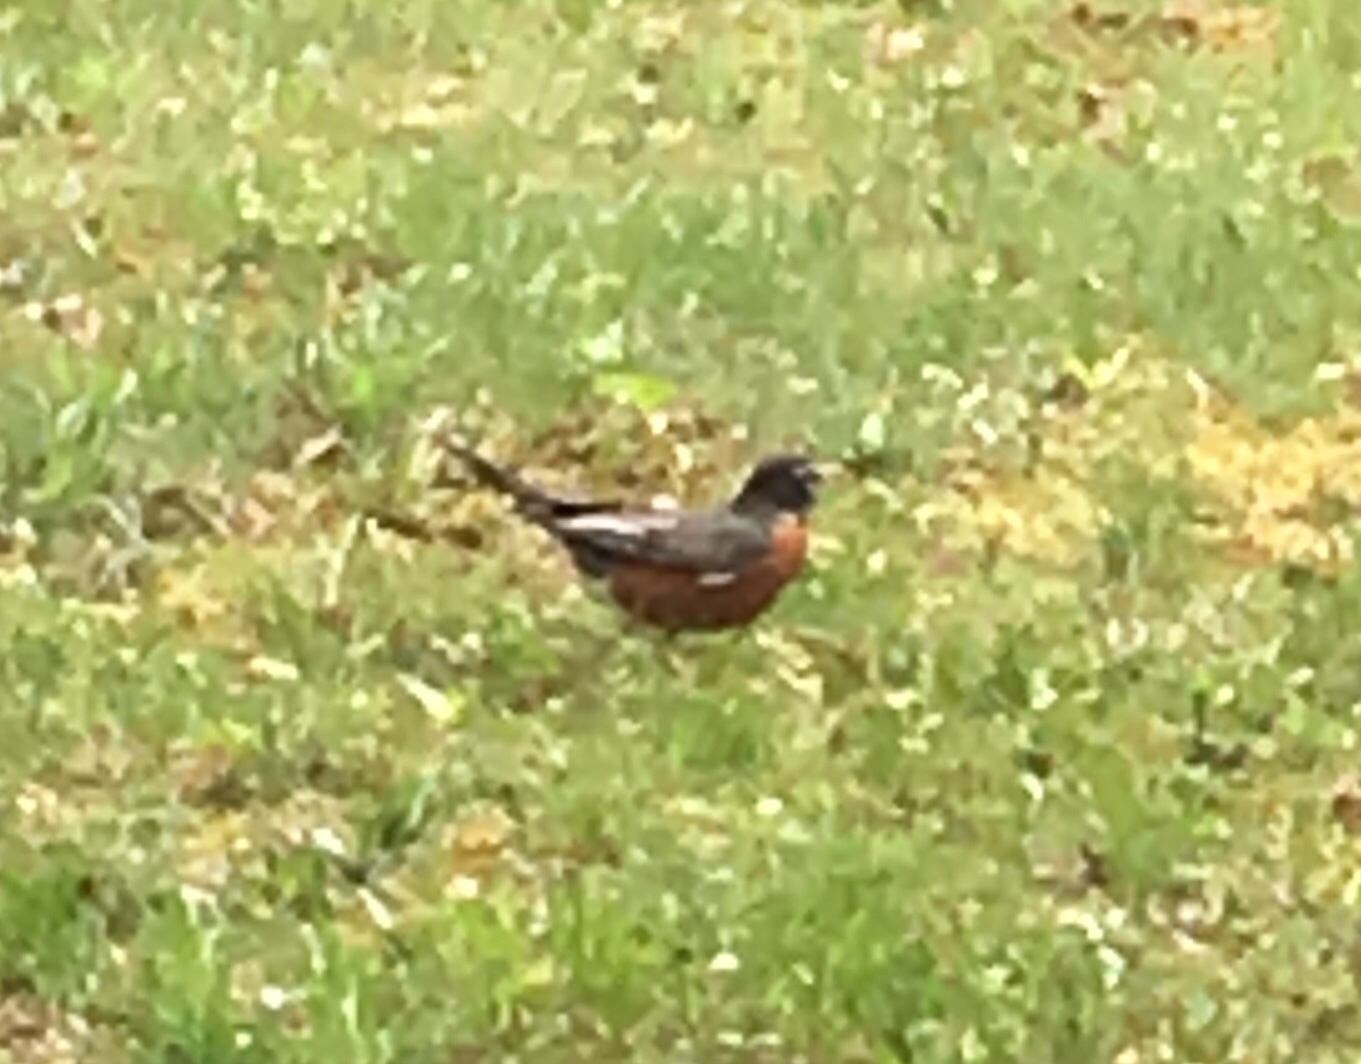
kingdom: Animalia
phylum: Chordata
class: Aves
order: Passeriformes
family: Turdidae
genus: Turdus
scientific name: Turdus migratorius
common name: American robin
